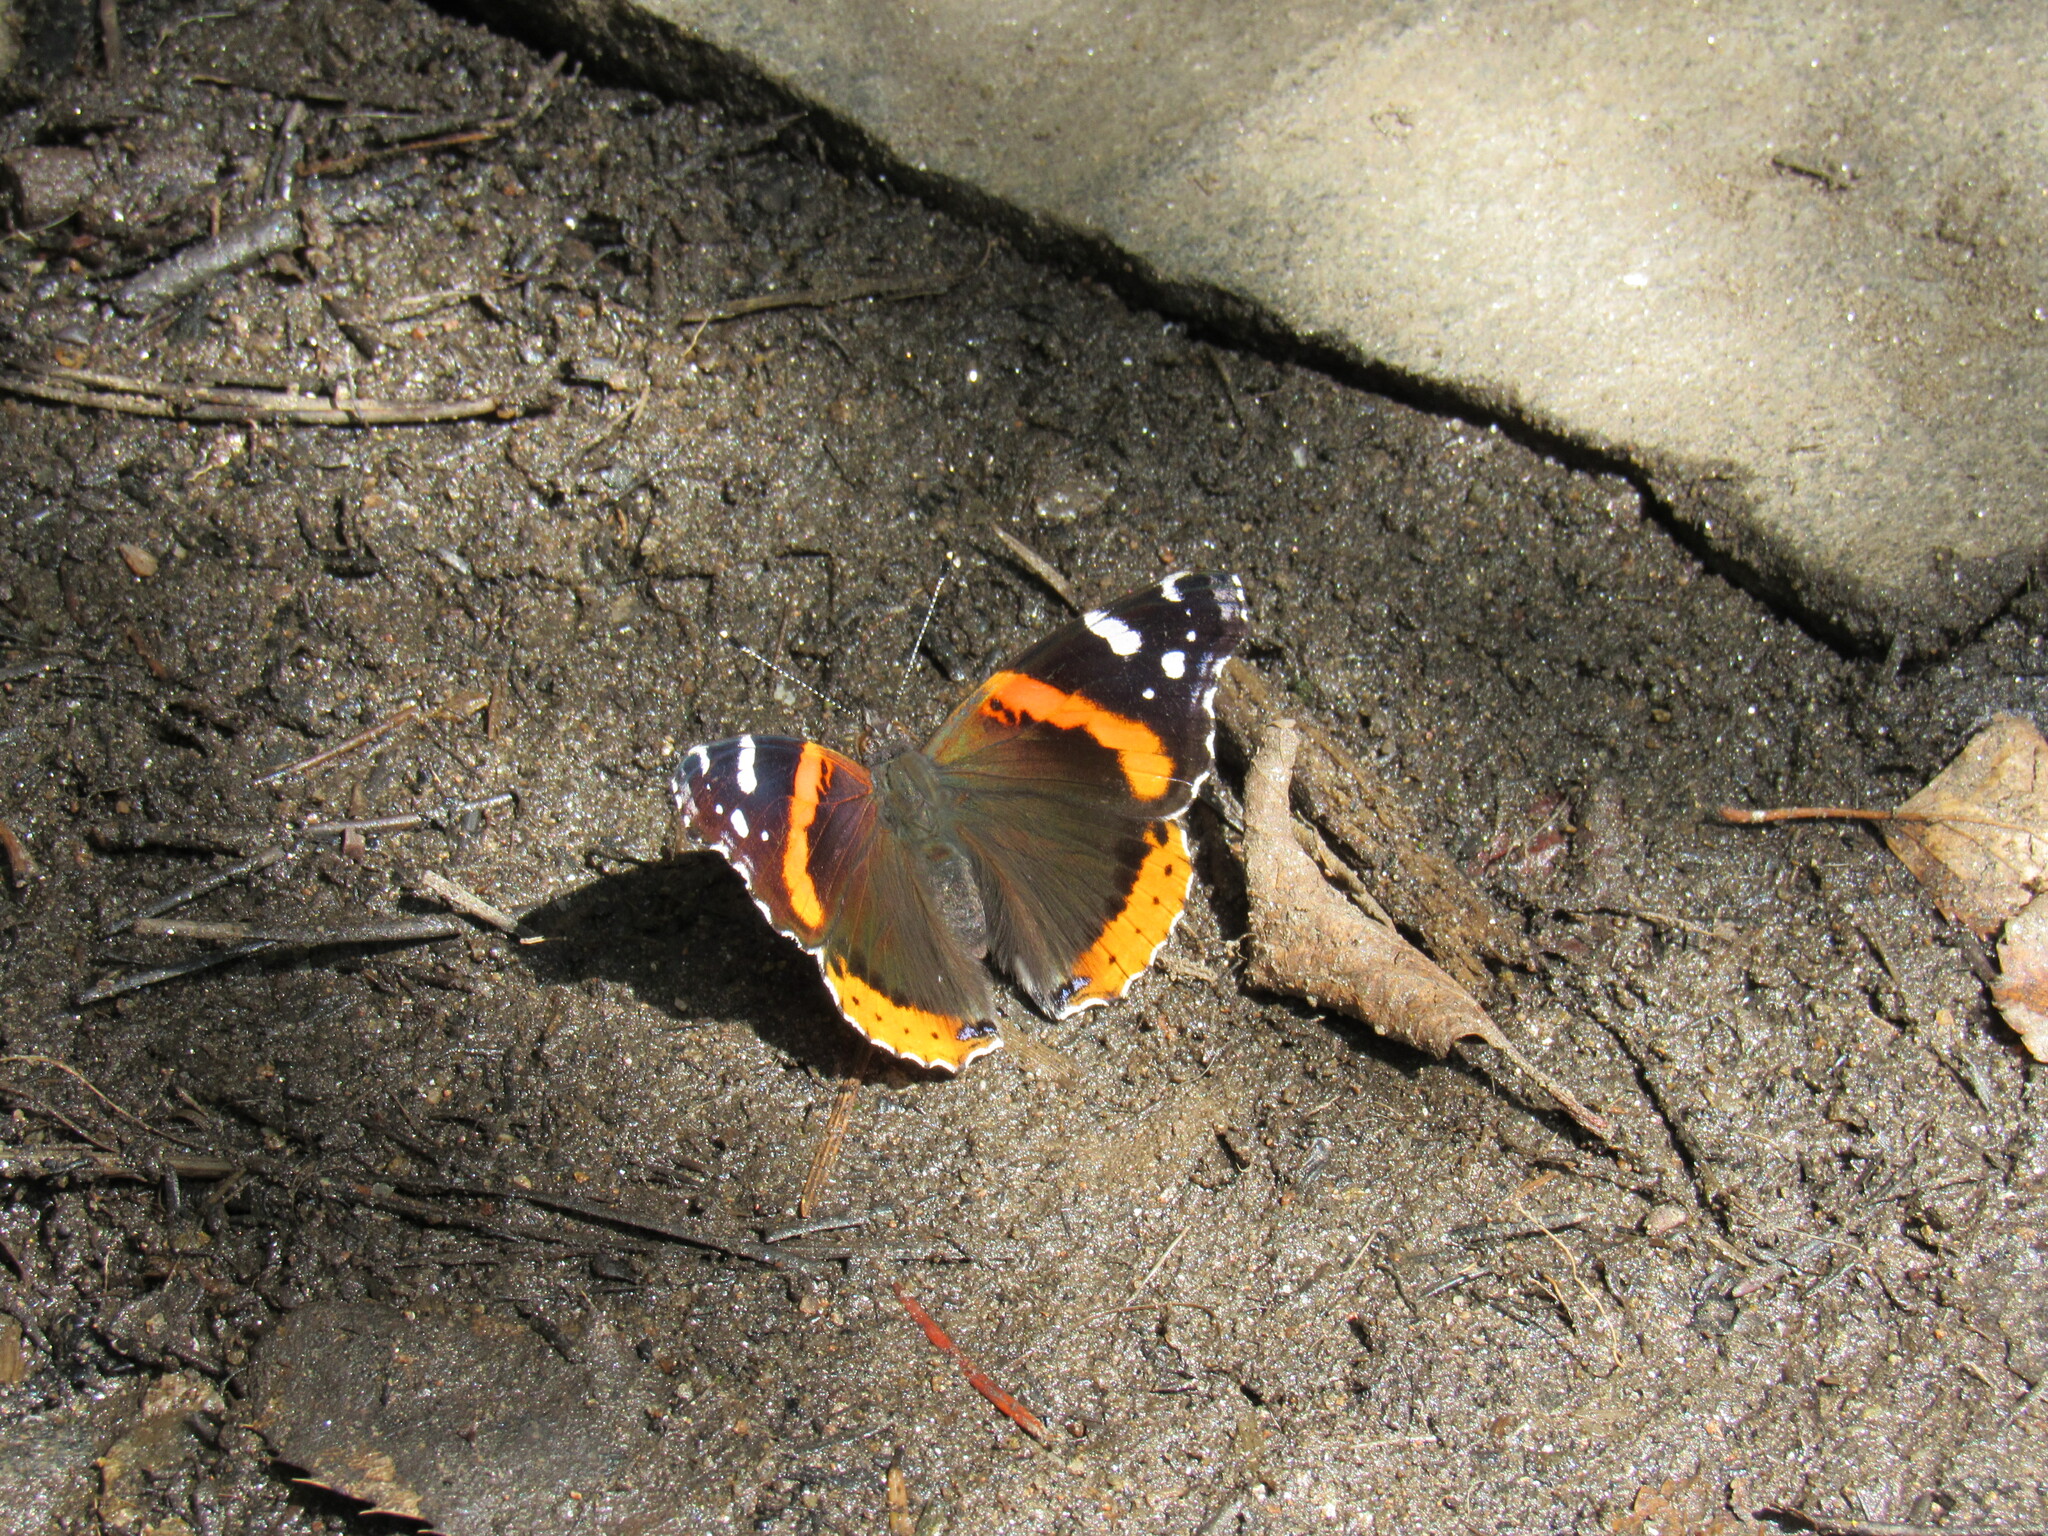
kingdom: Animalia
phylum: Arthropoda
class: Insecta
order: Lepidoptera
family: Nymphalidae
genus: Vanessa
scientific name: Vanessa atalanta
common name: Red admiral
